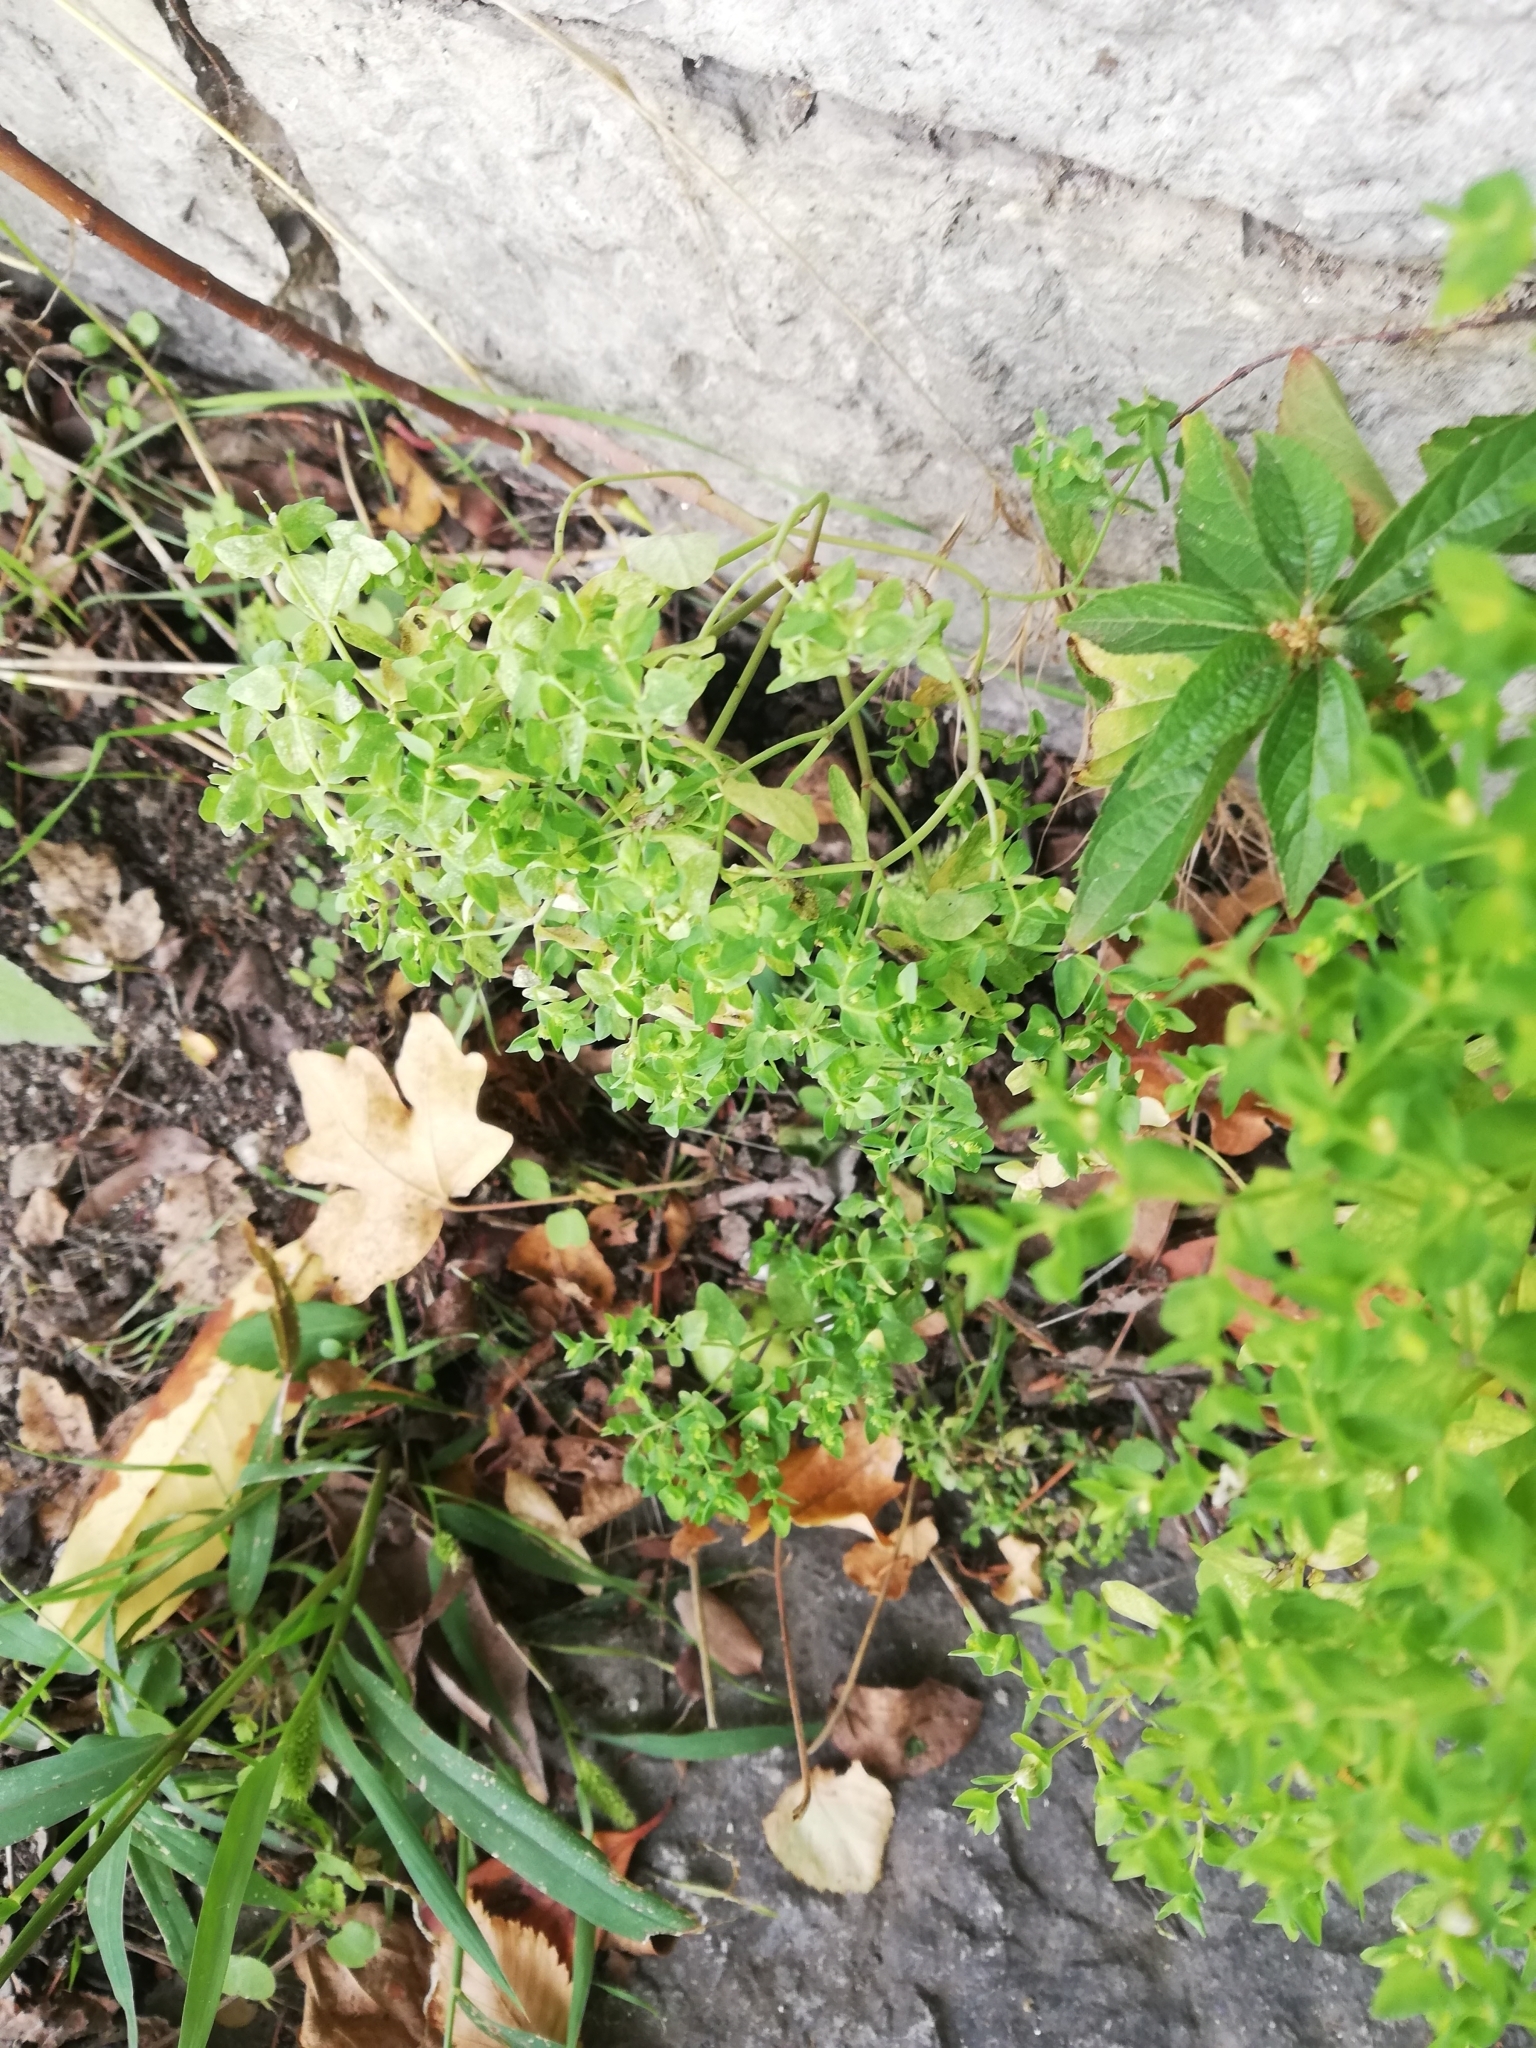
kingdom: Plantae
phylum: Tracheophyta
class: Magnoliopsida
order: Malpighiales
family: Euphorbiaceae
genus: Euphorbia
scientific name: Euphorbia peplus
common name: Petty spurge
